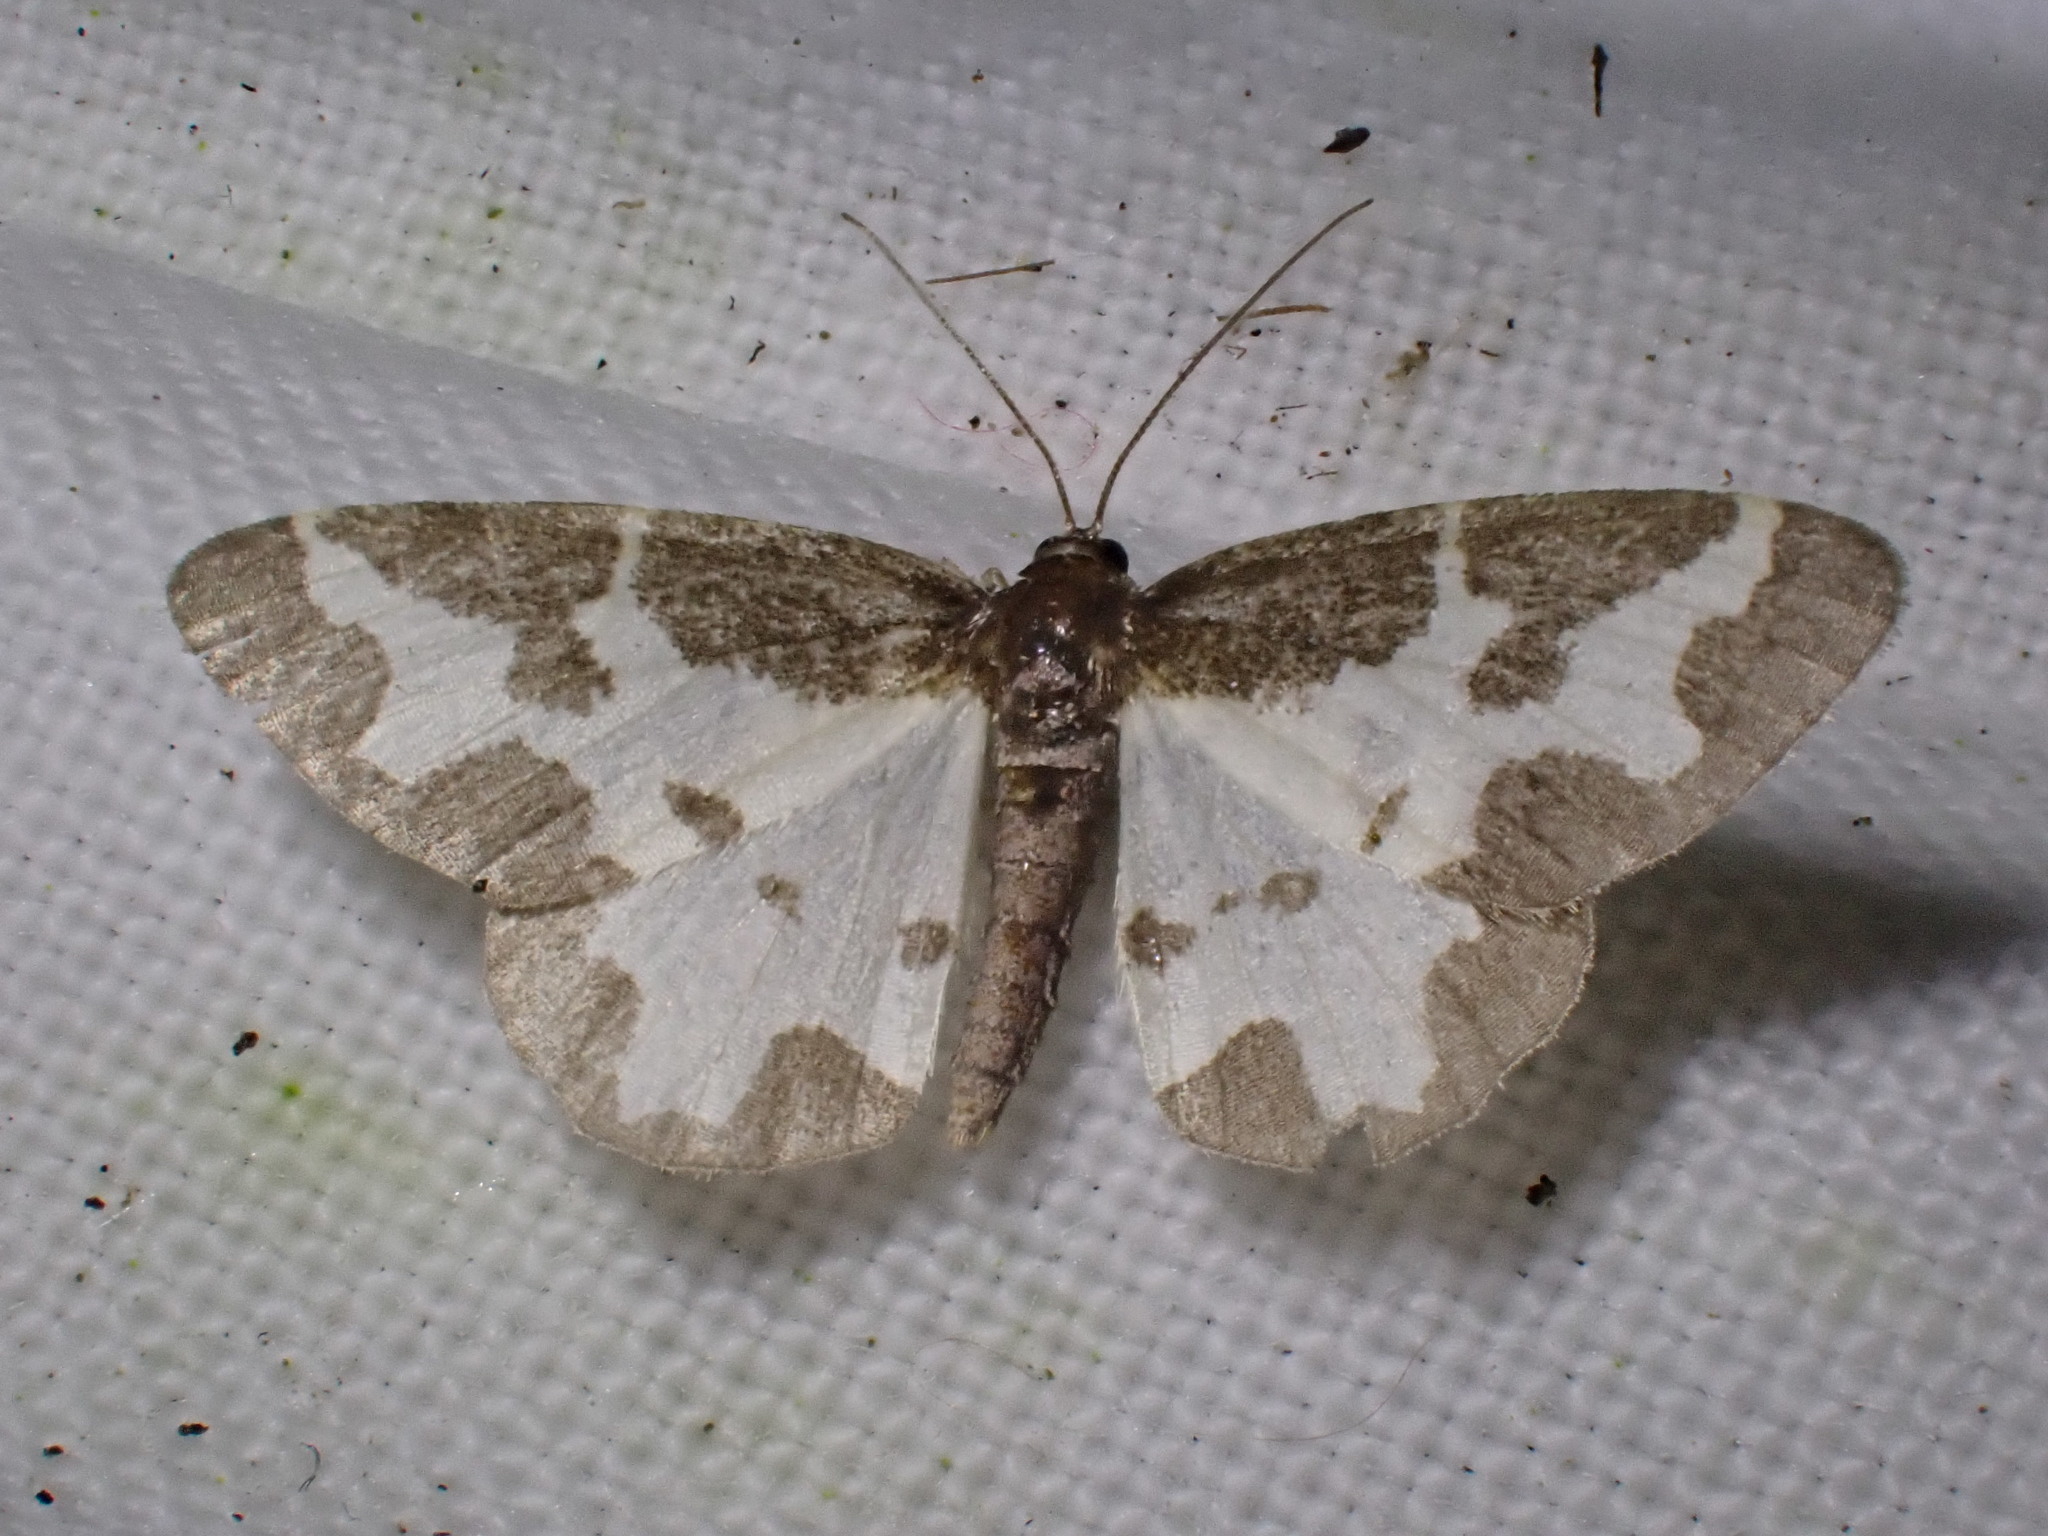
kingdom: Animalia
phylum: Arthropoda
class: Insecta
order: Lepidoptera
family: Geometridae
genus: Lomaspilis
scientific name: Lomaspilis marginata
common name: Clouded border
